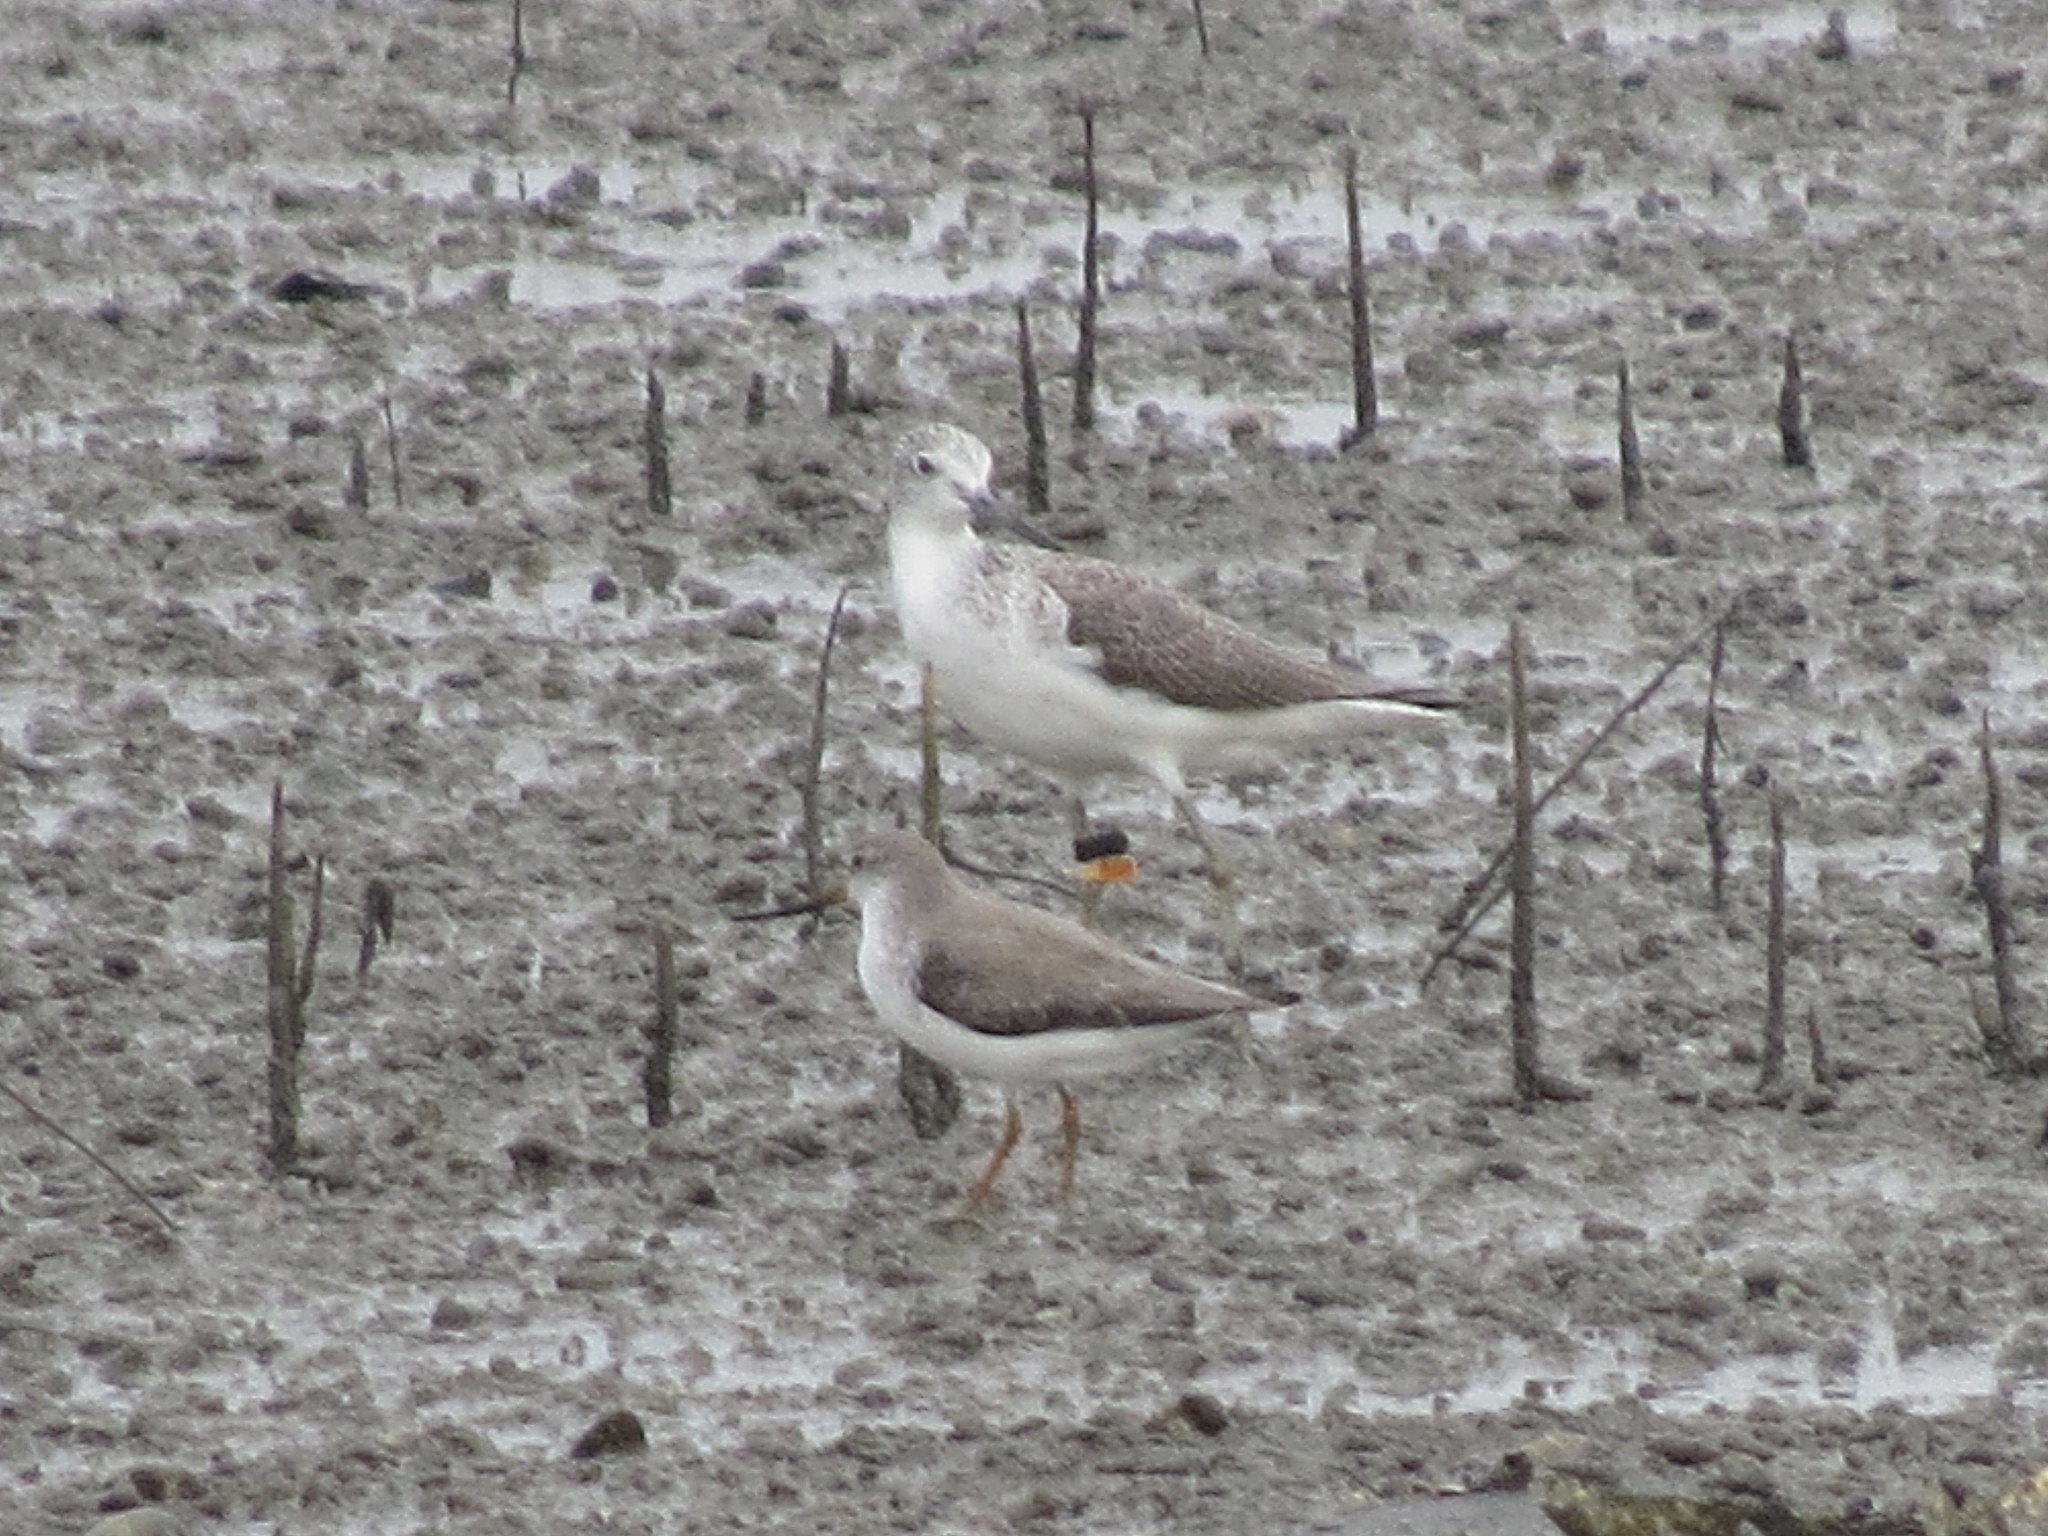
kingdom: Animalia
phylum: Chordata
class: Aves
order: Charadriiformes
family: Scolopacidae
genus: Xenus
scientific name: Xenus cinereus
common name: Terek sandpiper
